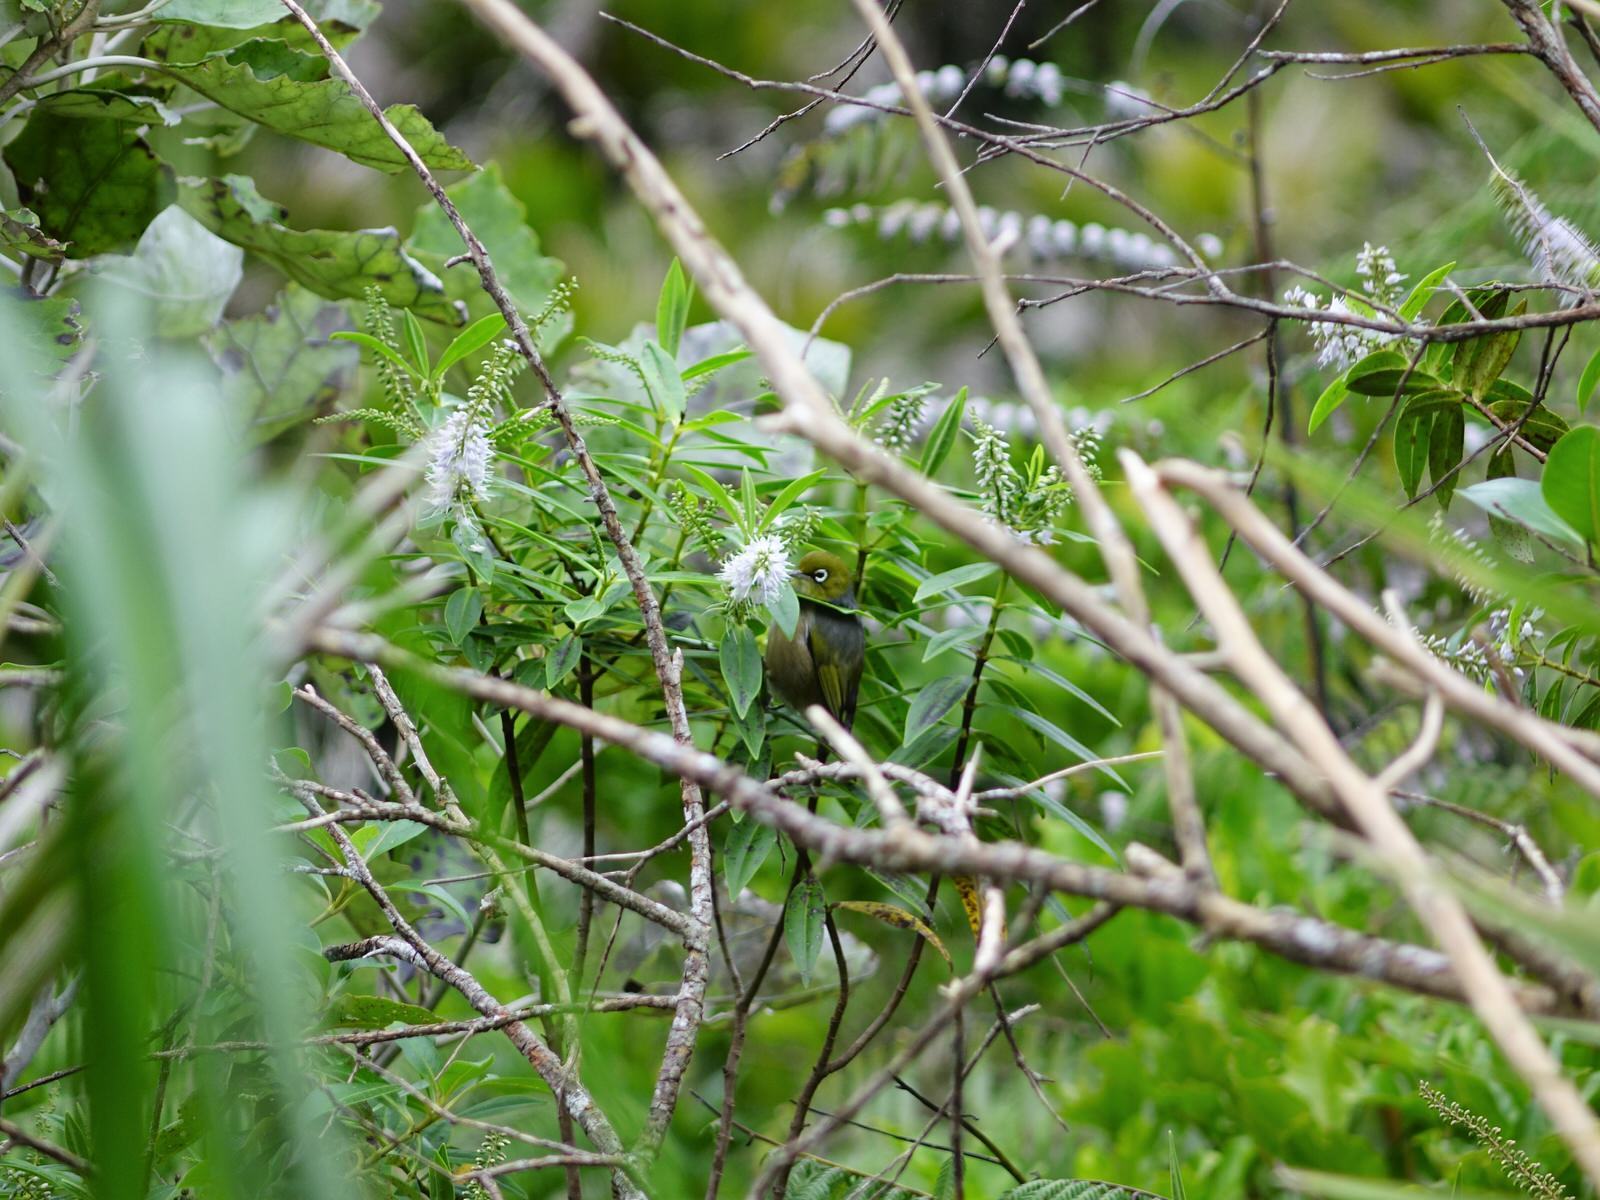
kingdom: Animalia
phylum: Chordata
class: Aves
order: Passeriformes
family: Zosteropidae
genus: Zosterops
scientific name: Zosterops lateralis
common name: Silvereye
